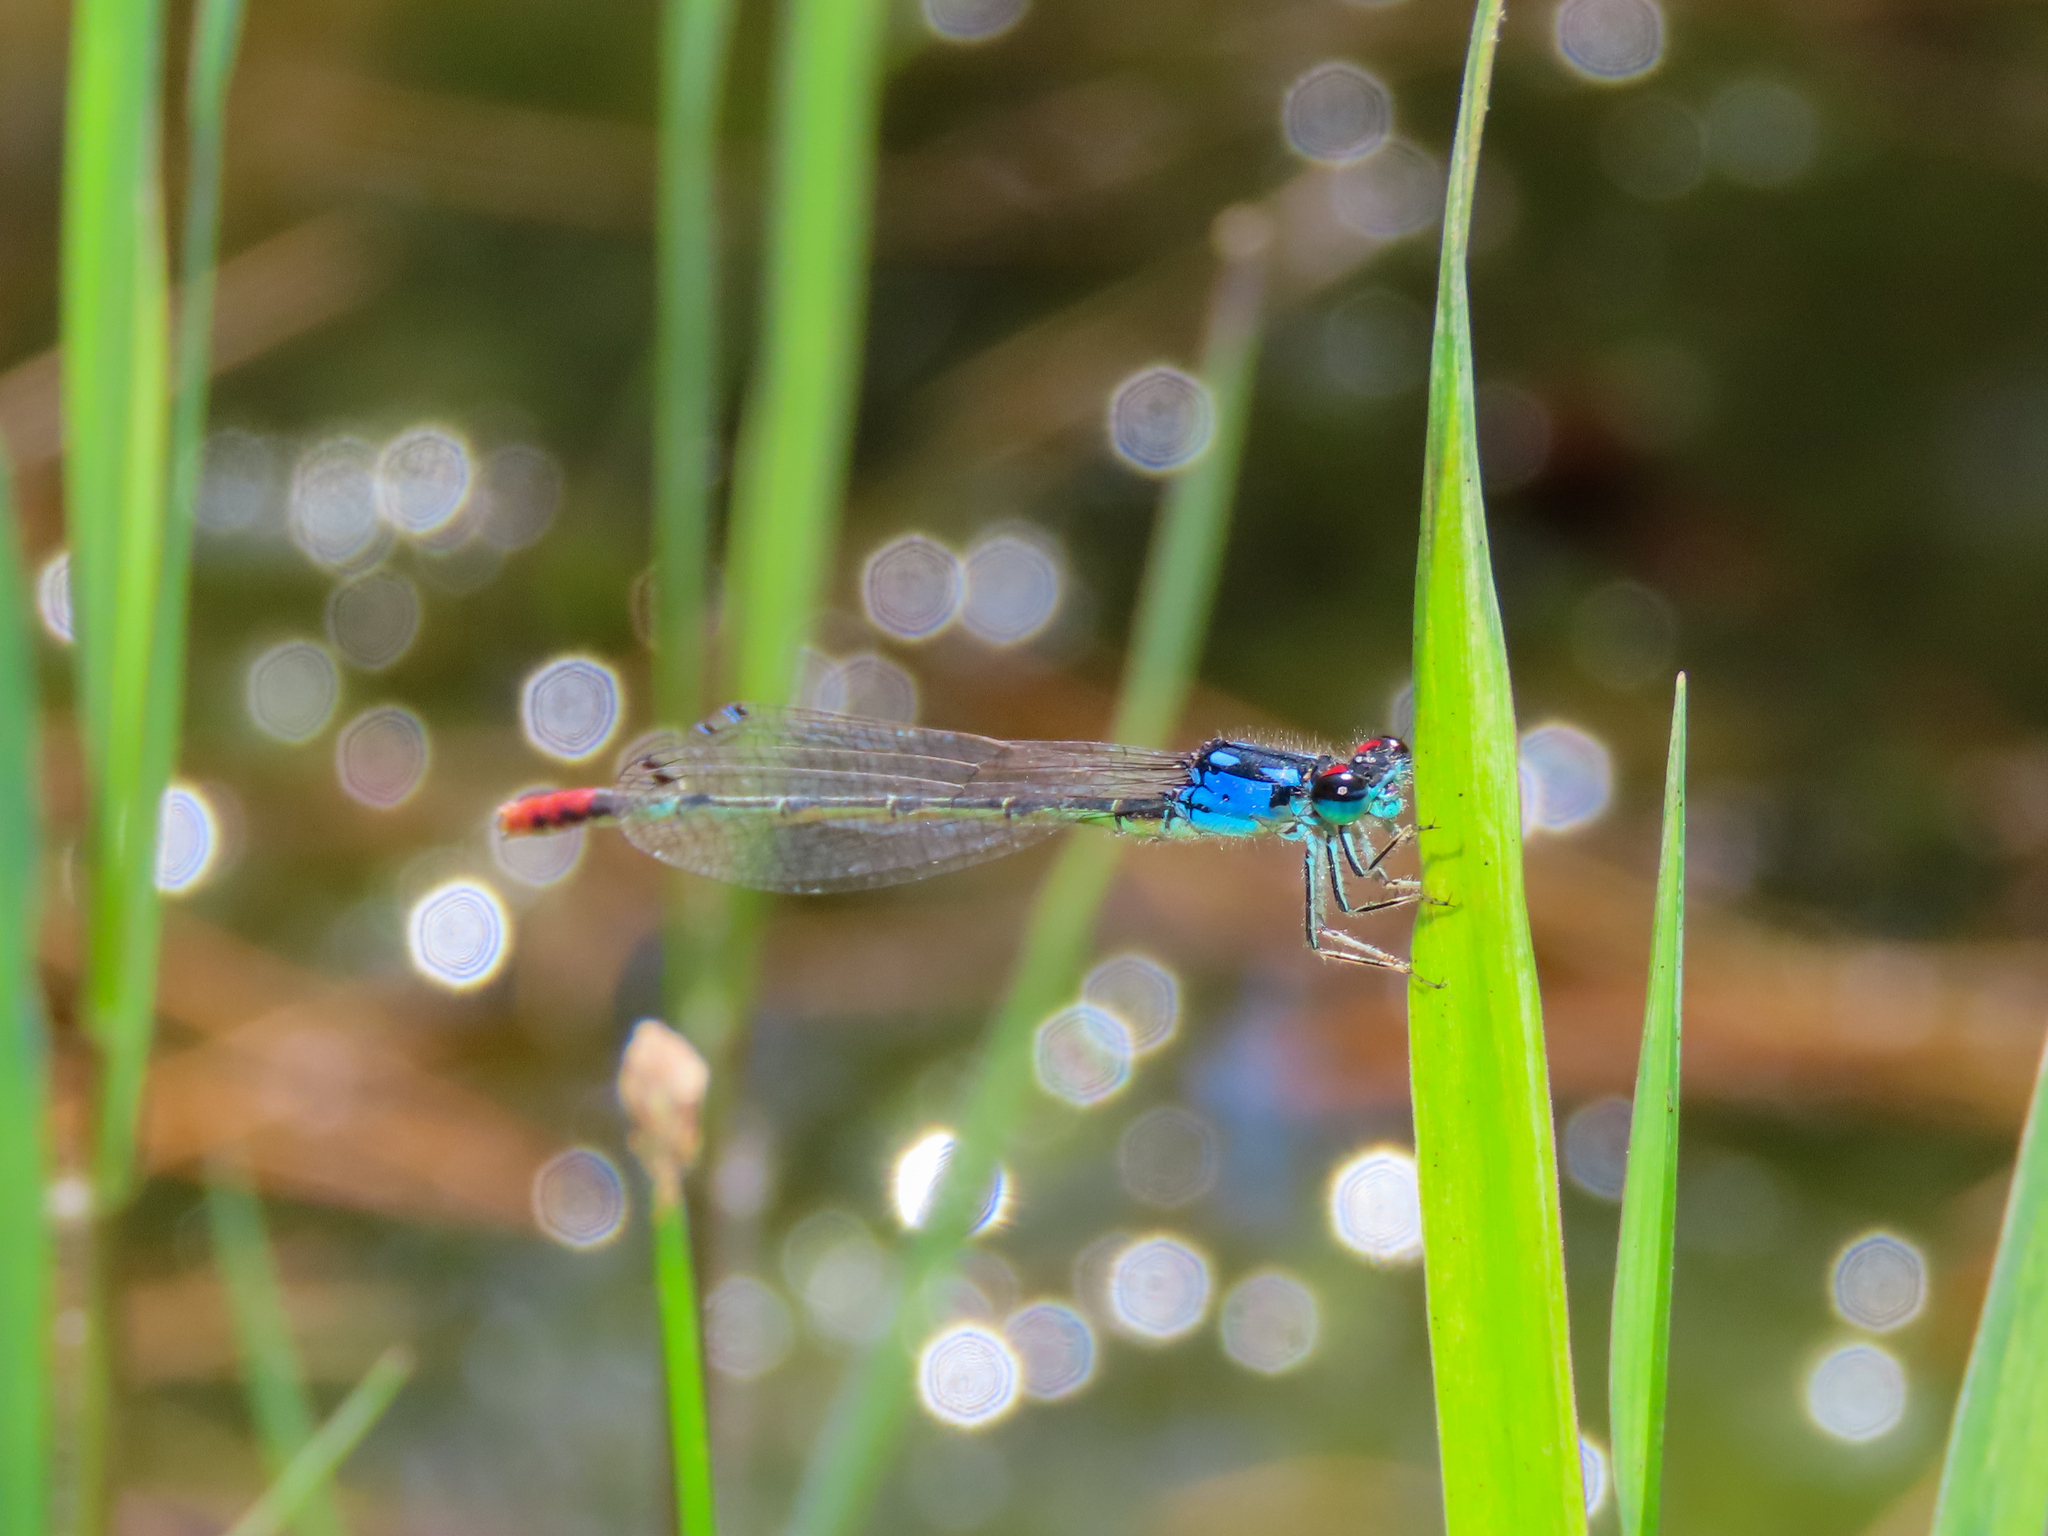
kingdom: Animalia
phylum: Arthropoda
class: Insecta
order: Odonata
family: Coenagrionidae
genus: Hesperagrion
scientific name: Hesperagrion heterodoxum
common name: Painted damsel
